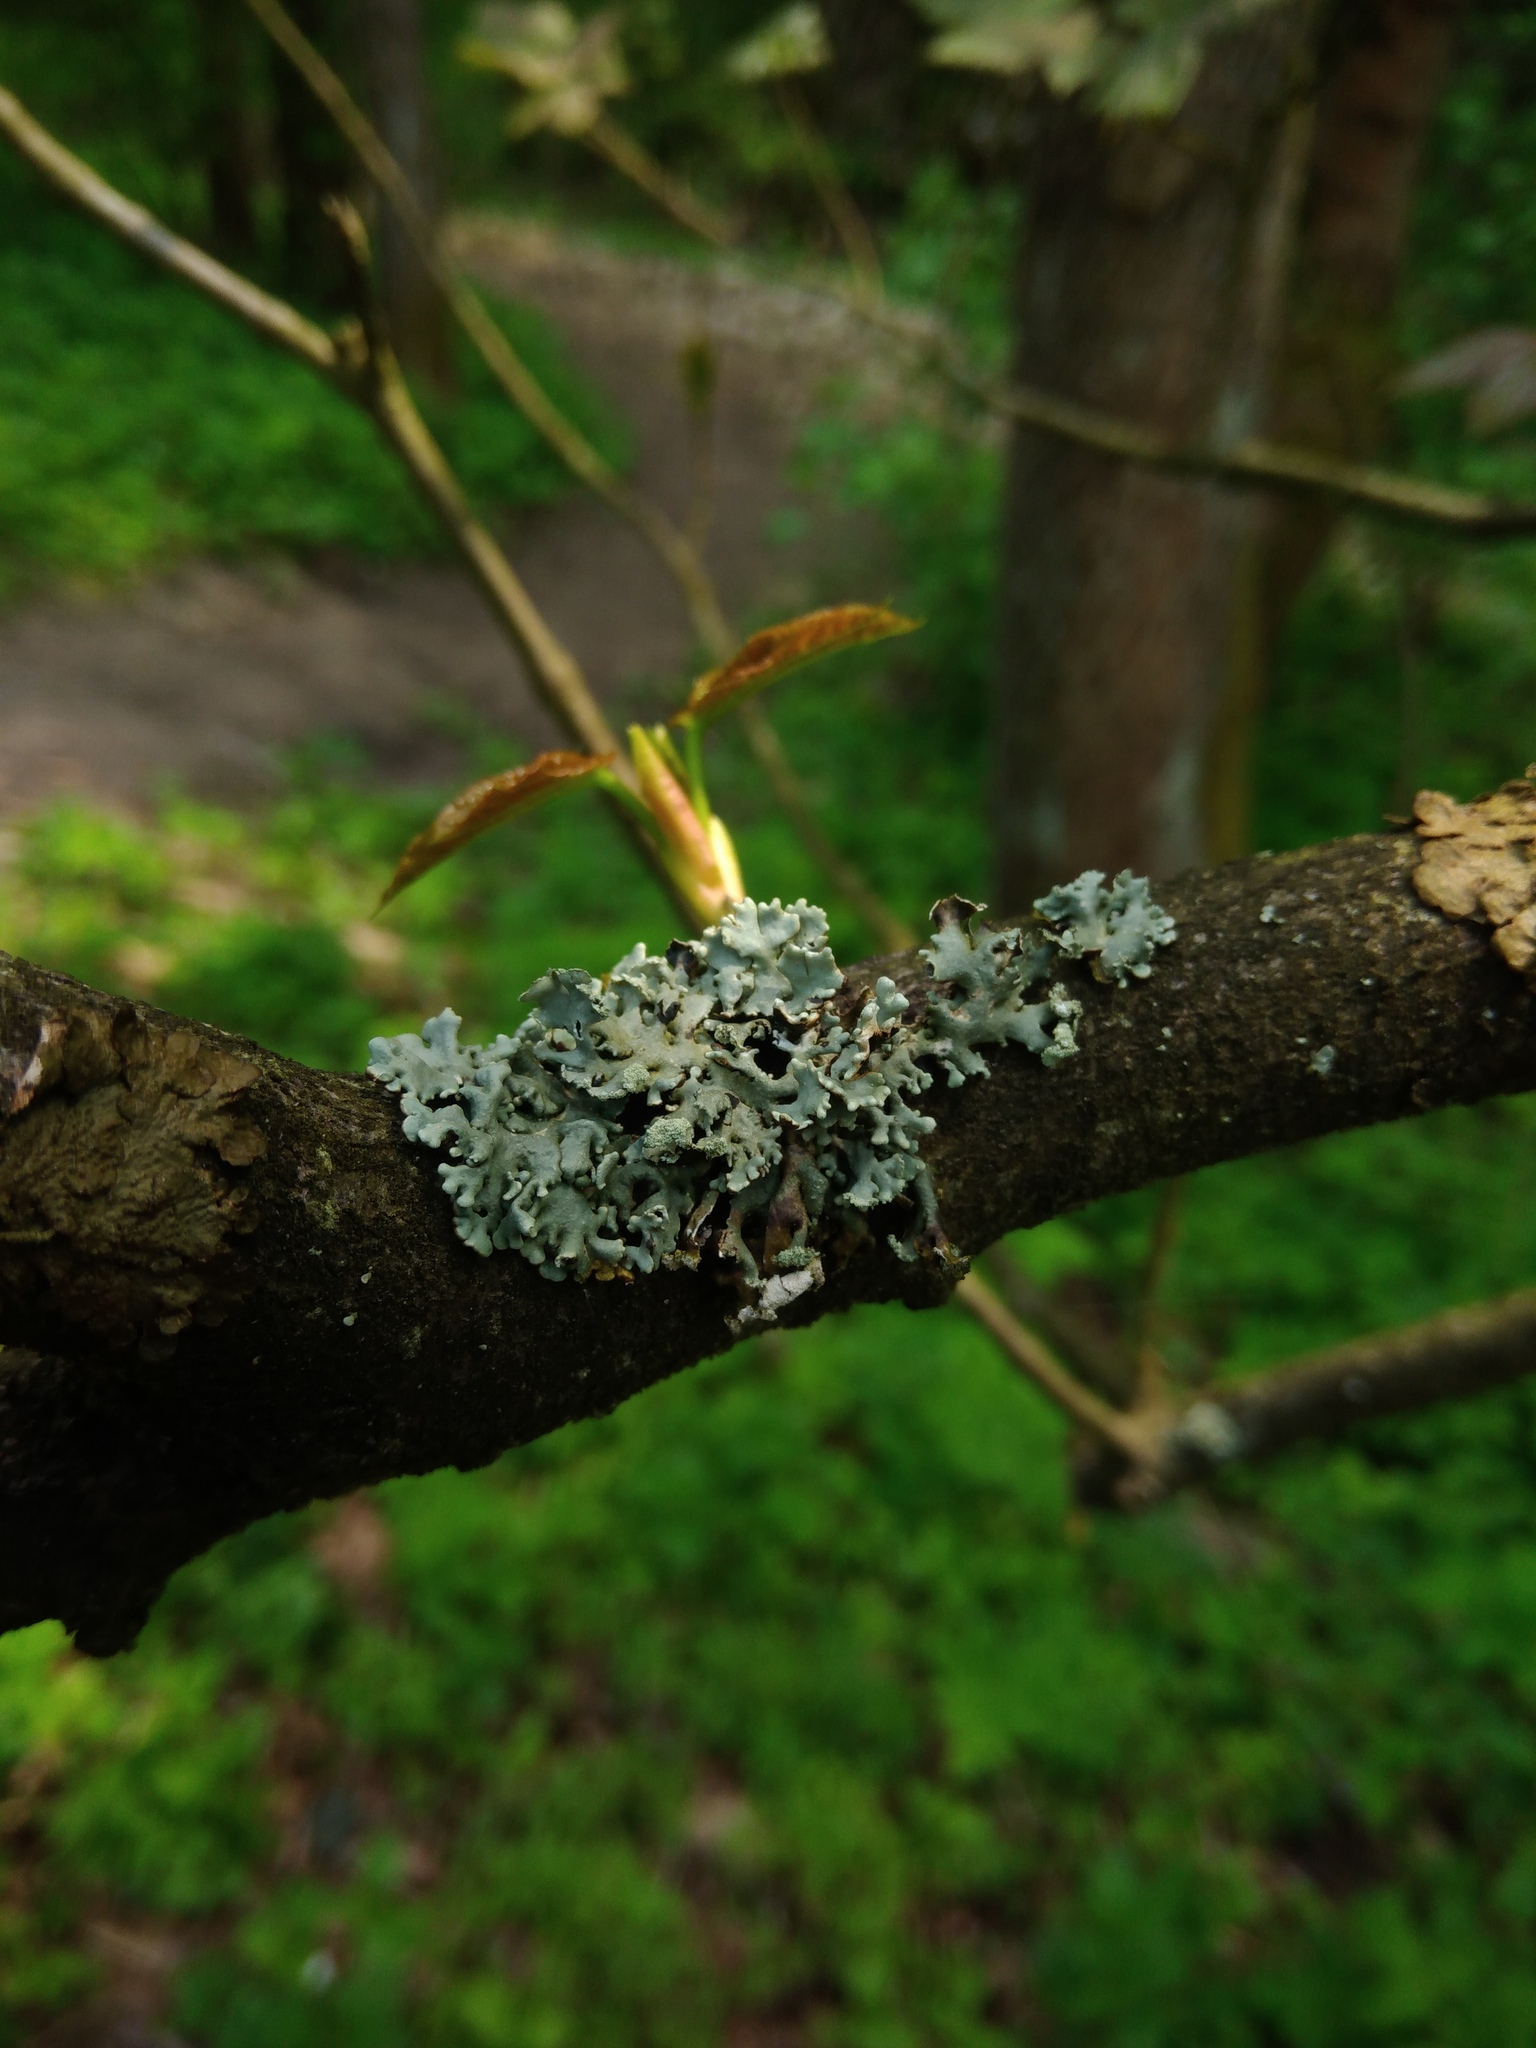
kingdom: Fungi
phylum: Ascomycota
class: Lecanoromycetes
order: Lecanorales
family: Parmeliaceae
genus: Hypogymnia
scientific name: Hypogymnia physodes
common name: Dark crottle
